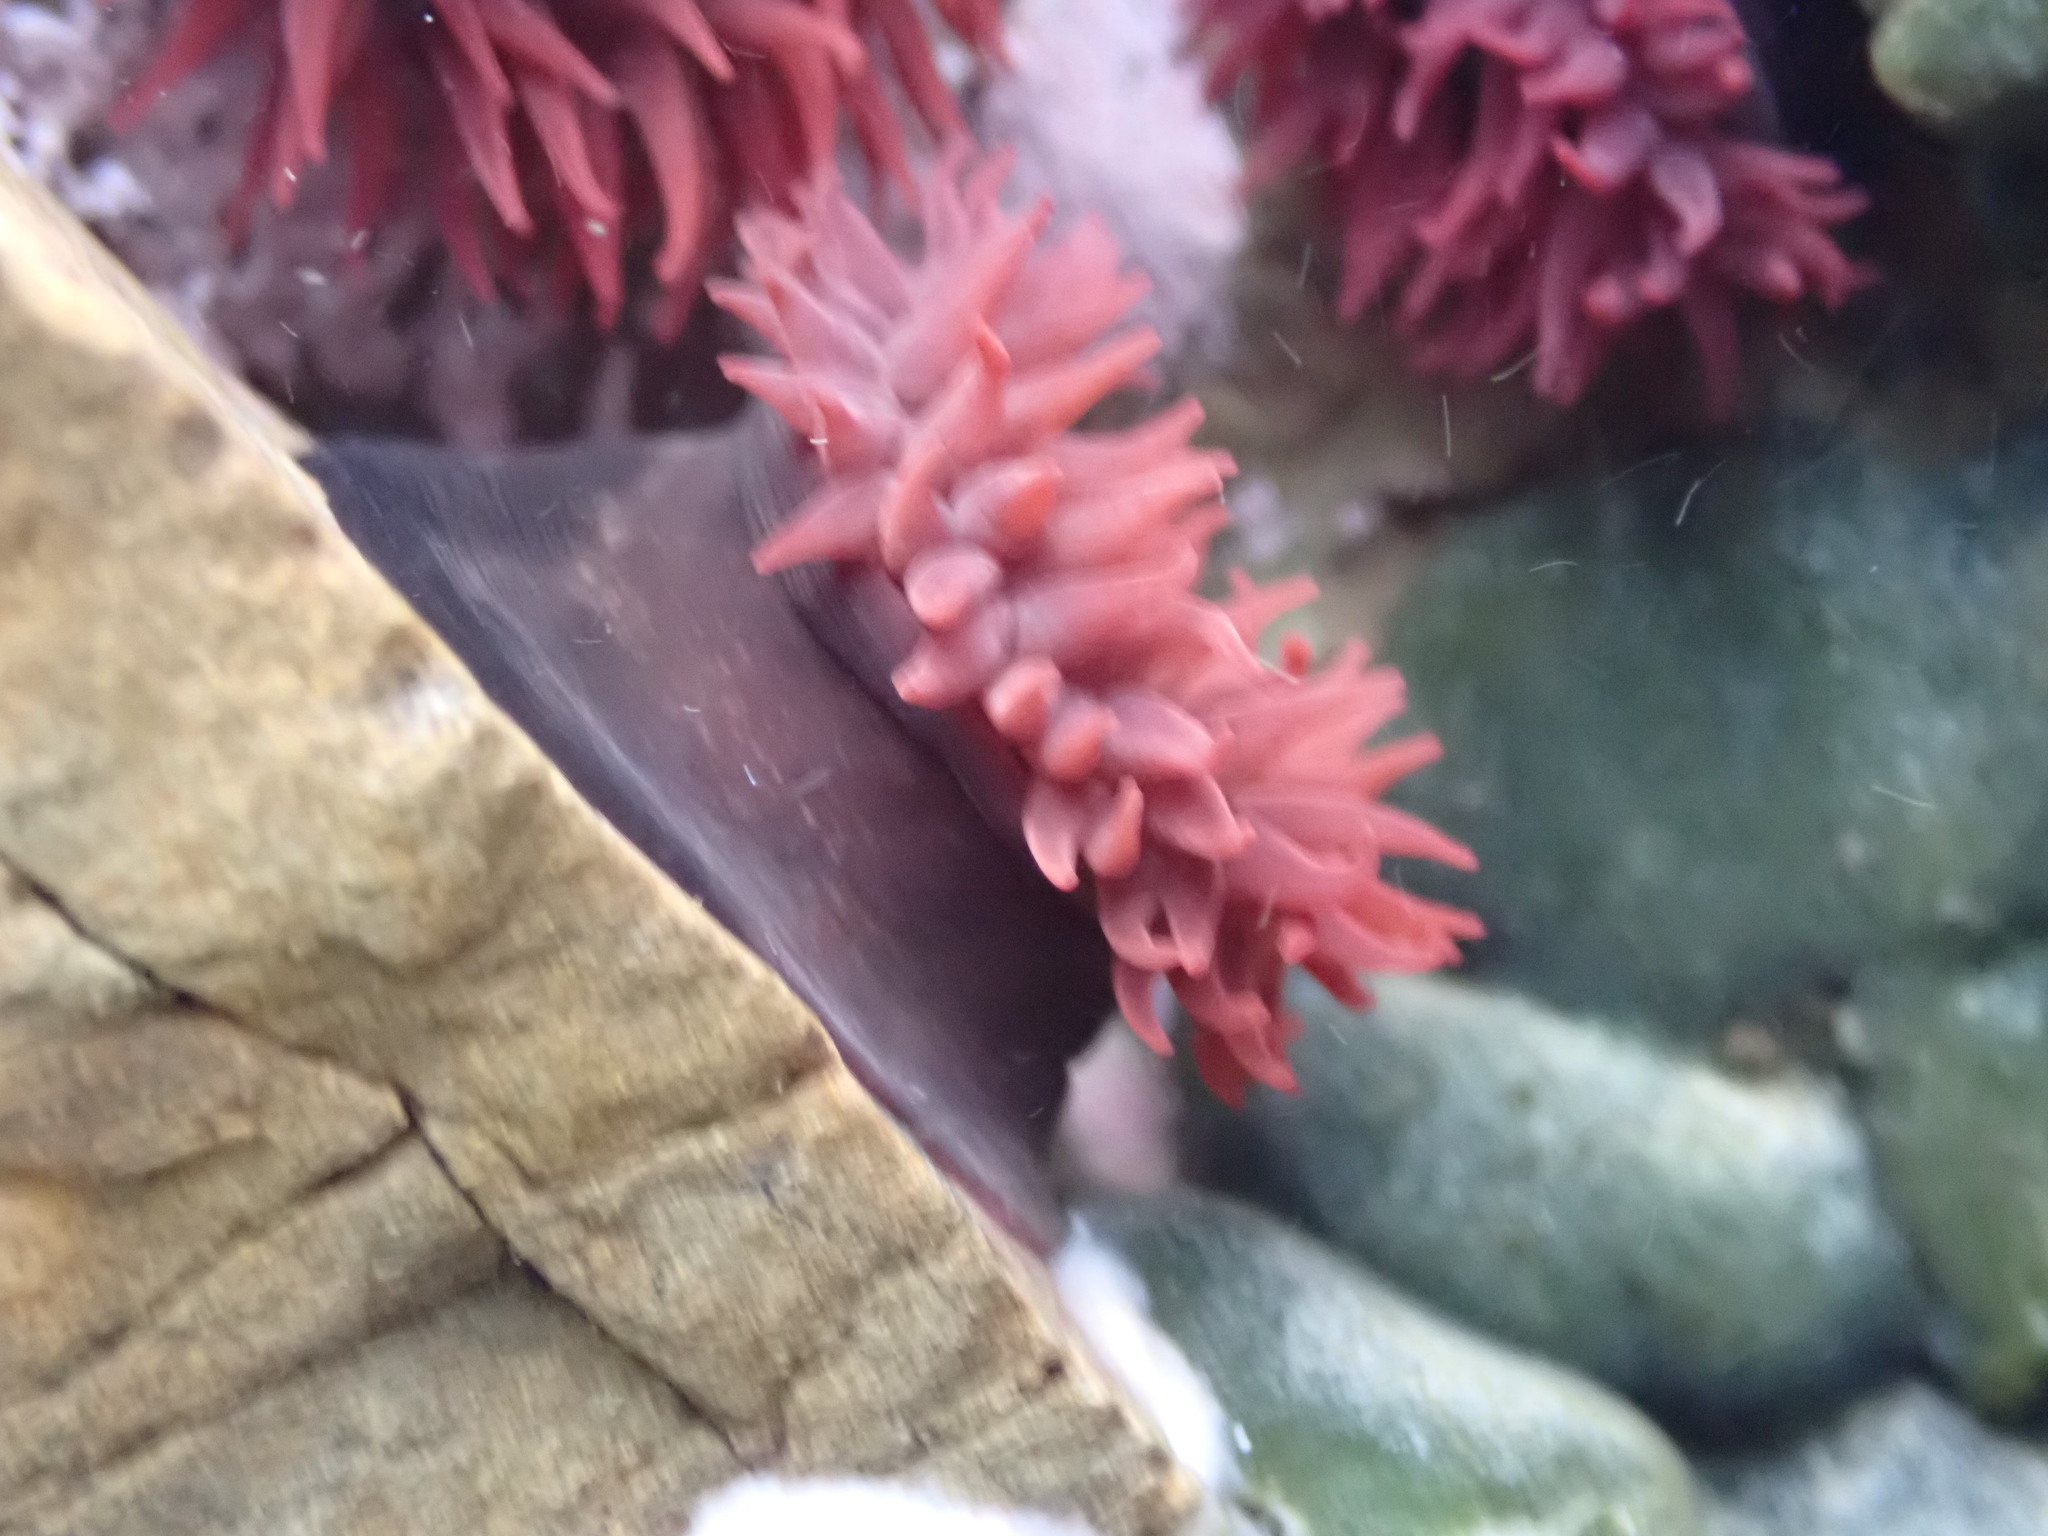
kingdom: Animalia
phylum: Cnidaria
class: Anthozoa
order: Actiniaria
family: Actiniidae
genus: Actinia
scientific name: Actinia tenebrosa
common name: Waratah anemone
